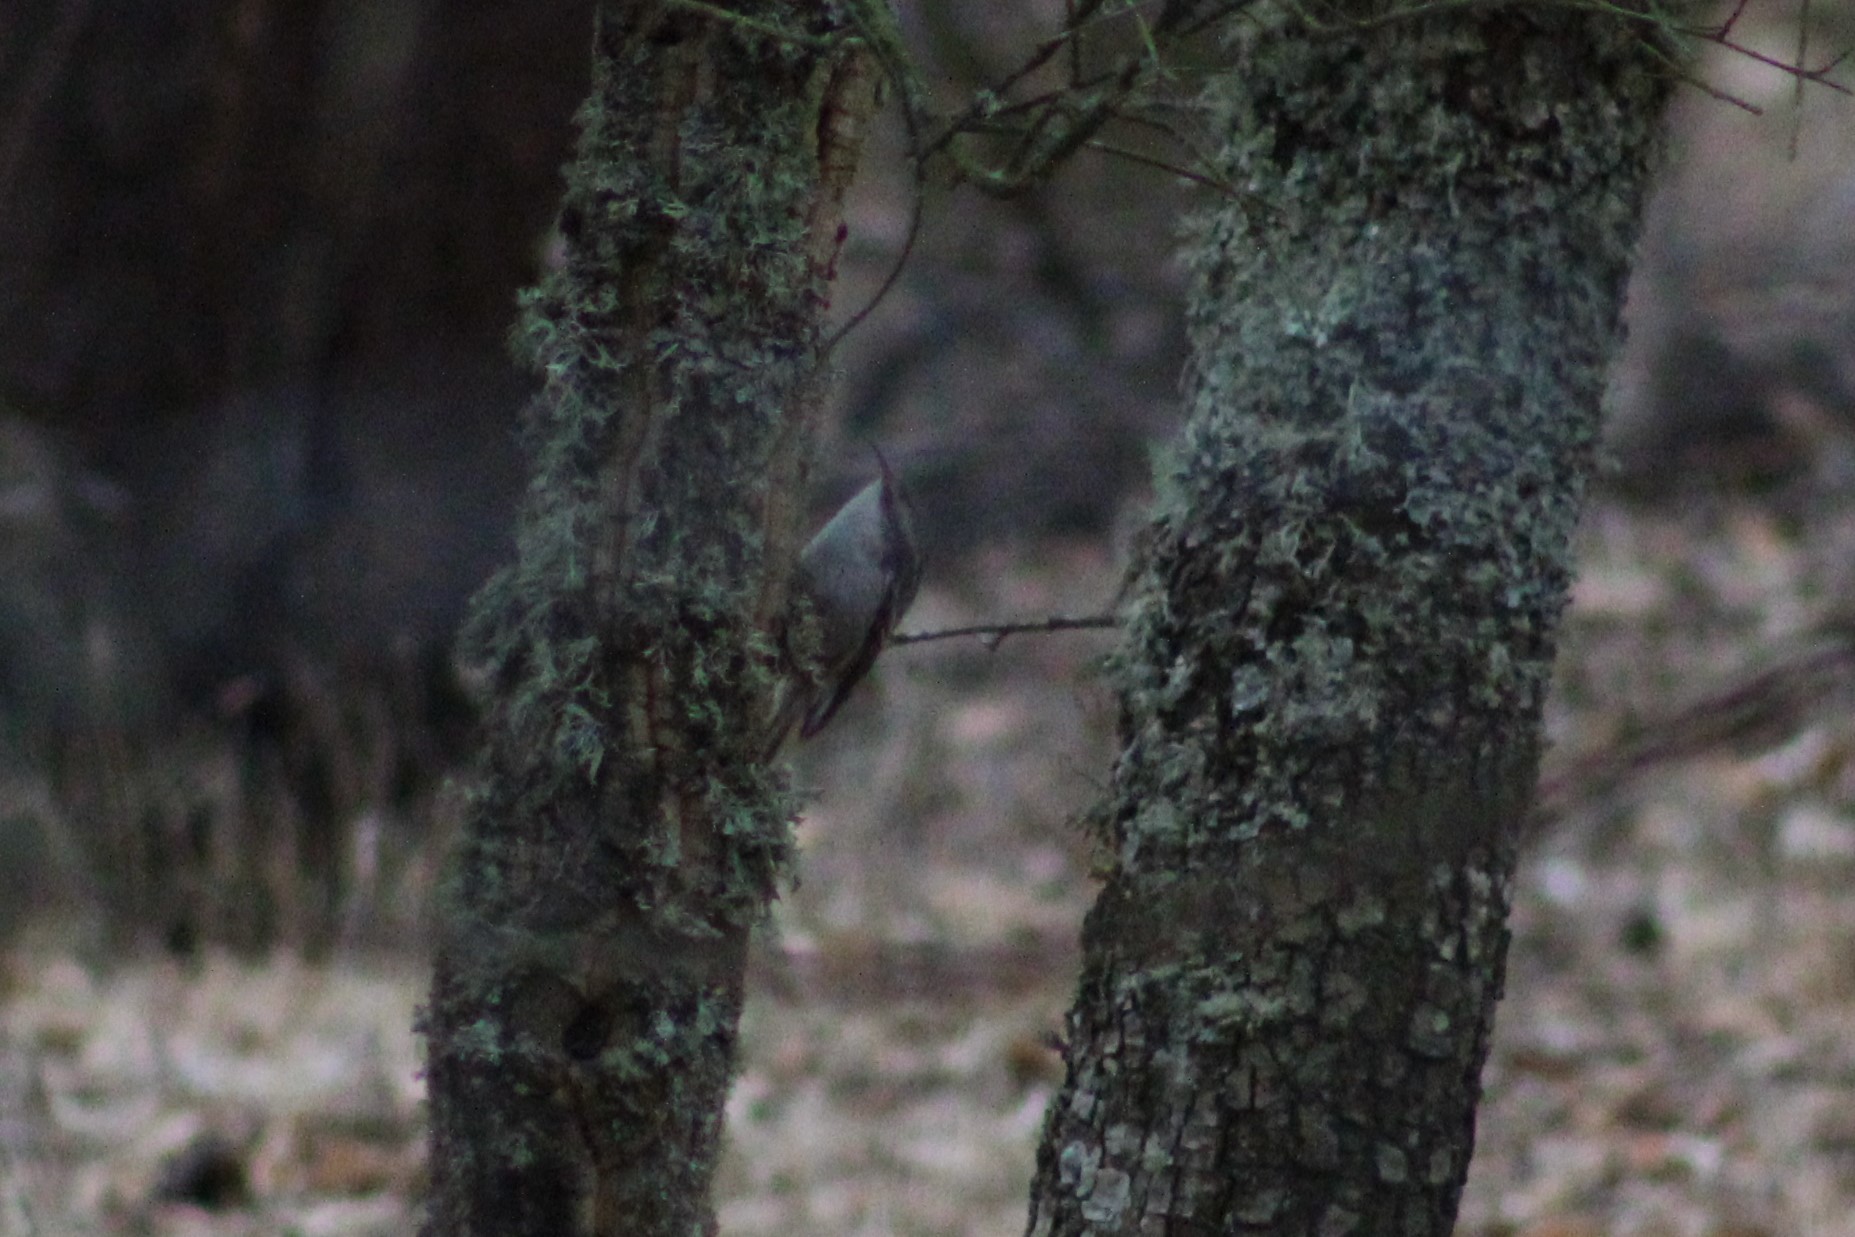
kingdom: Animalia
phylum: Chordata
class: Aves
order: Passeriformes
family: Certhiidae
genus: Certhia
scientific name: Certhia brachydactyla
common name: Short-toed treecreeper
